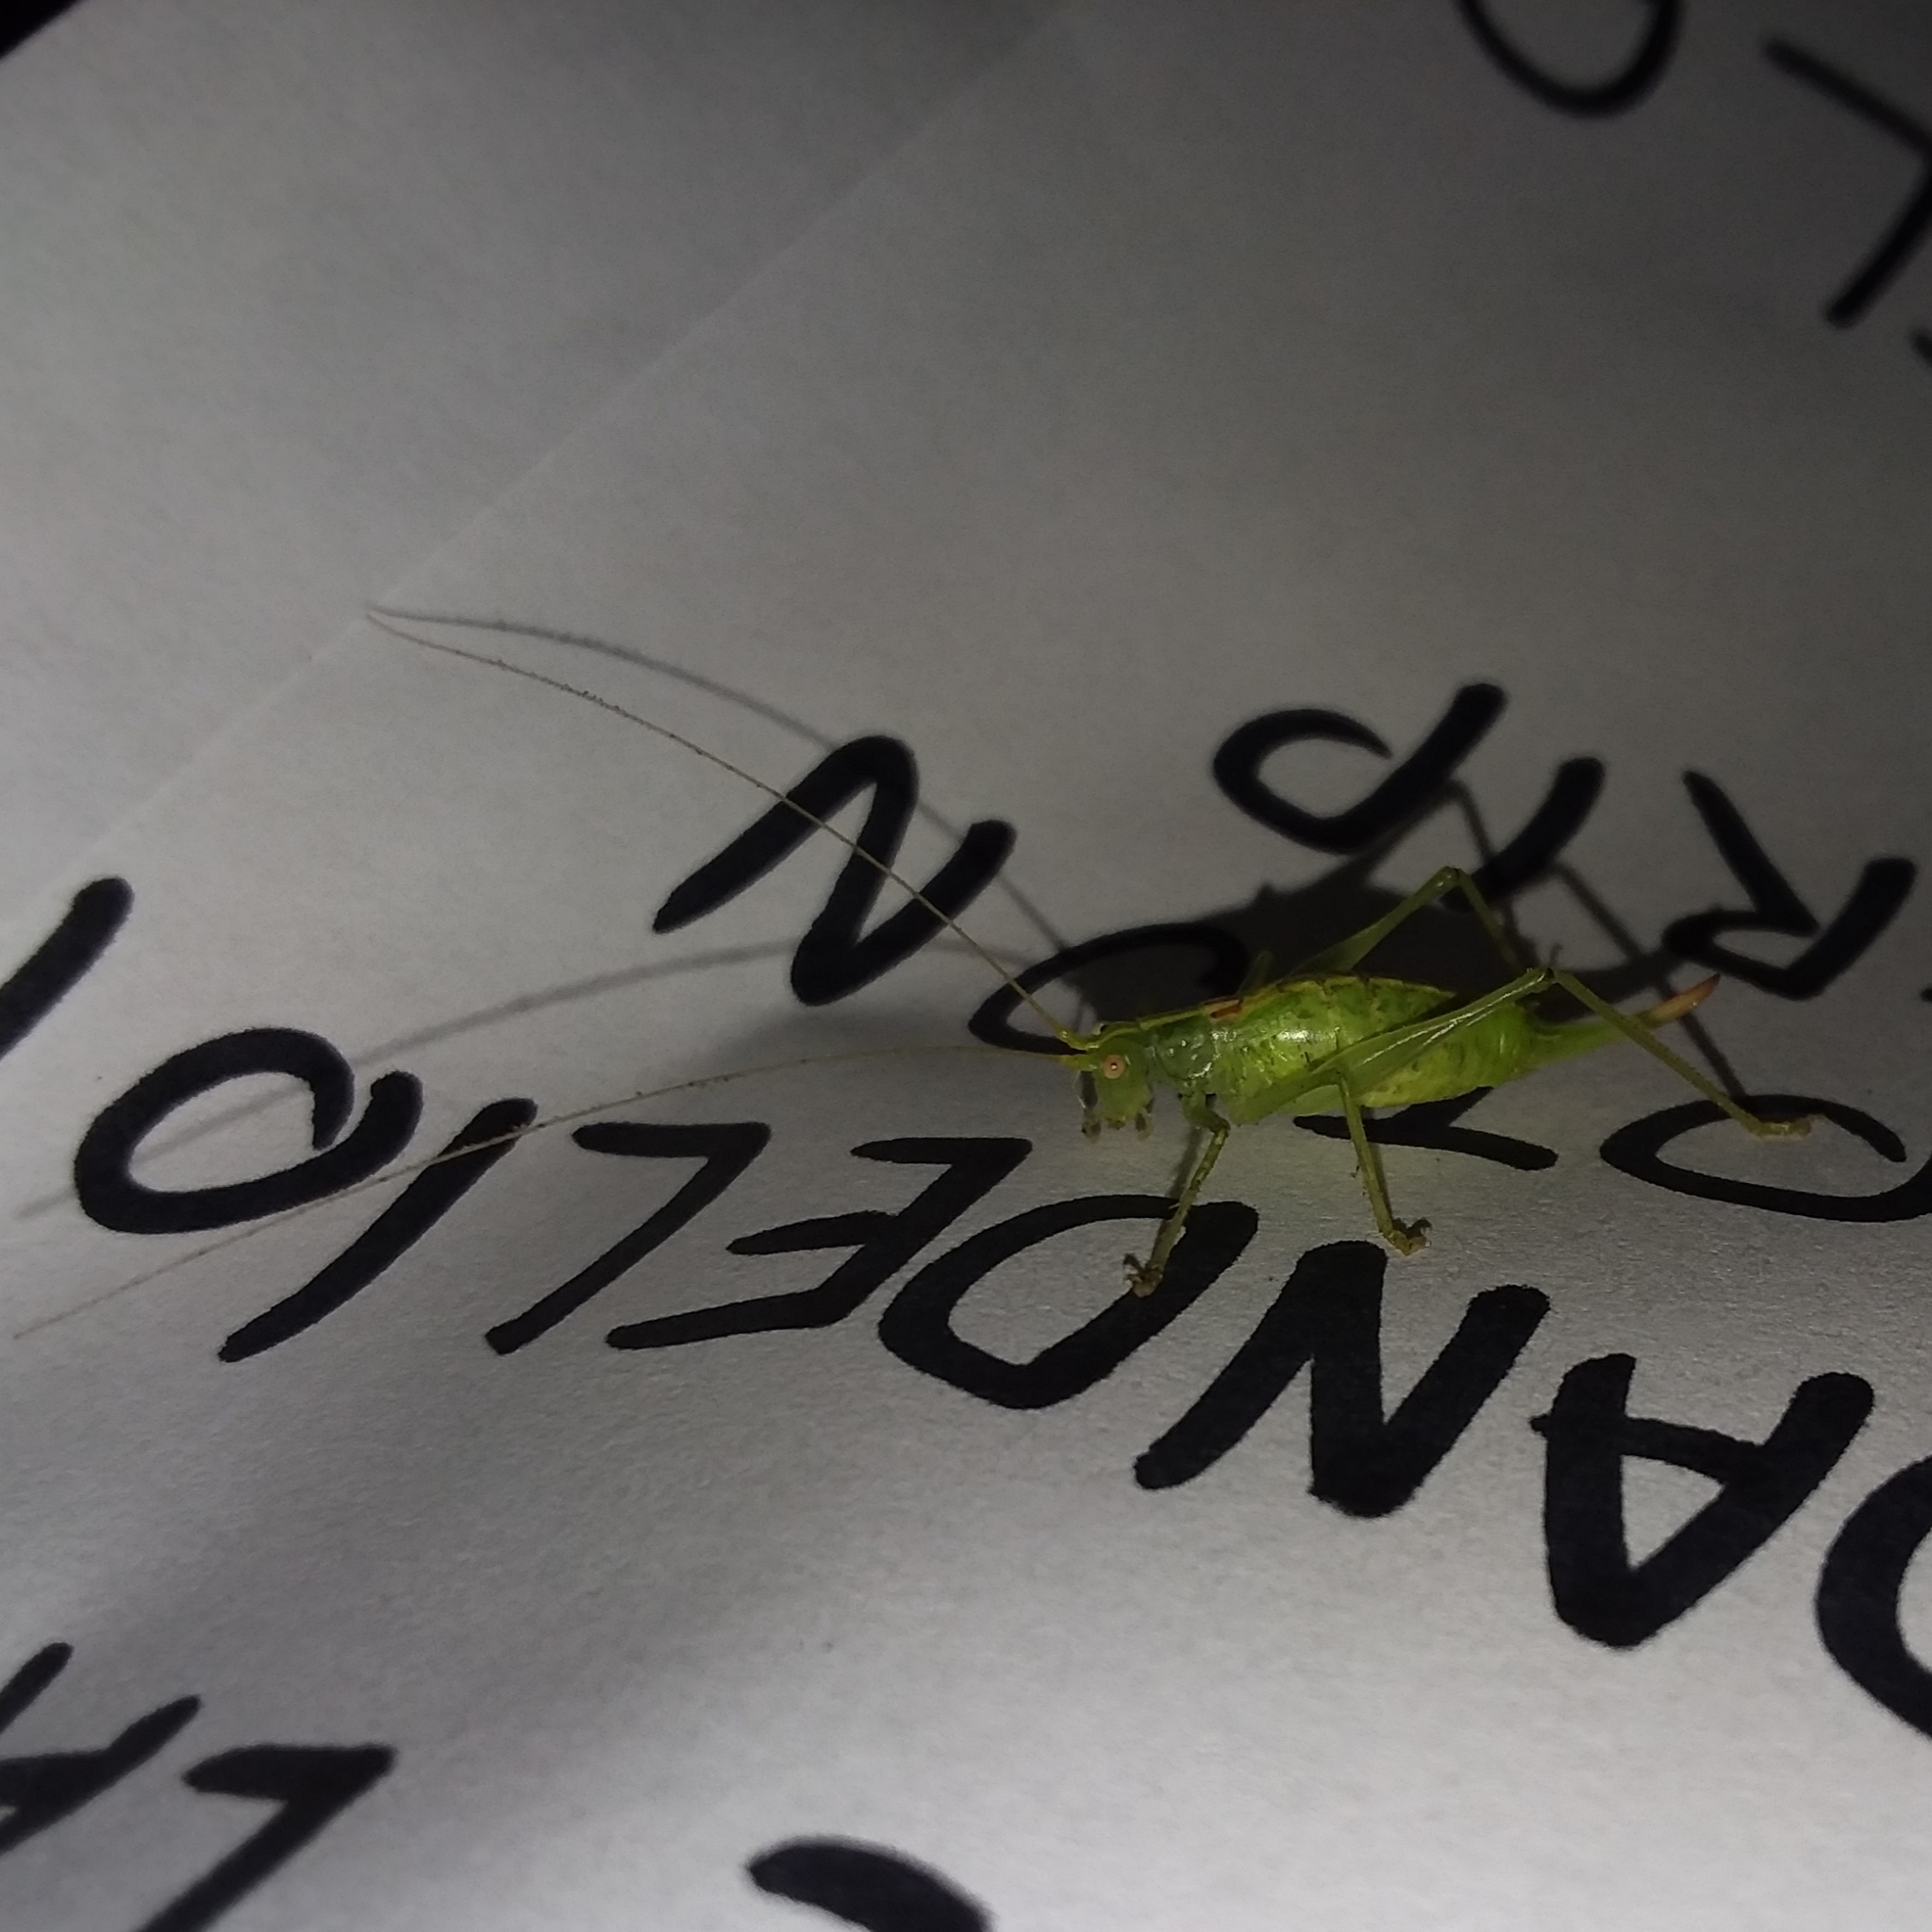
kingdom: Animalia
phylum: Arthropoda
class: Insecta
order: Orthoptera
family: Tettigoniidae
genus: Meconema
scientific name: Meconema meridionale
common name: Southern oak bush-cricket
